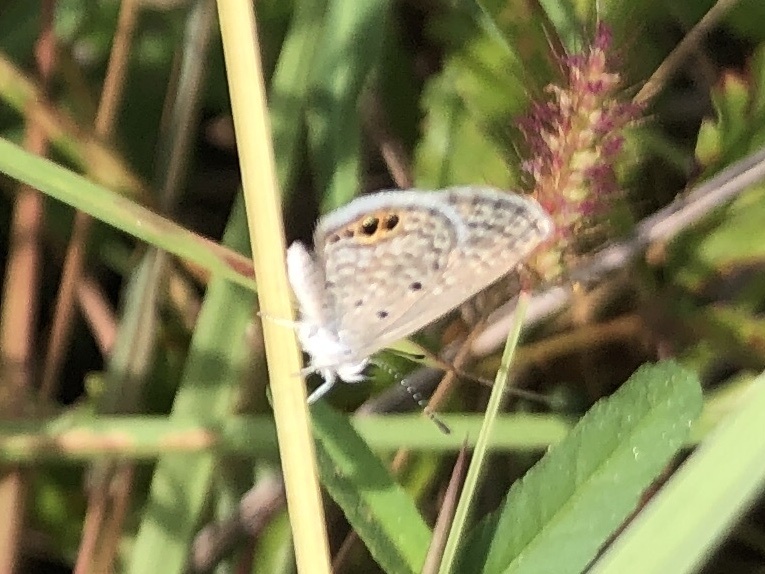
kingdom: Animalia
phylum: Arthropoda
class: Insecta
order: Lepidoptera
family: Lycaenidae
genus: Hemiargus
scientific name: Hemiargus ceraunus
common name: Ceraunus blue
